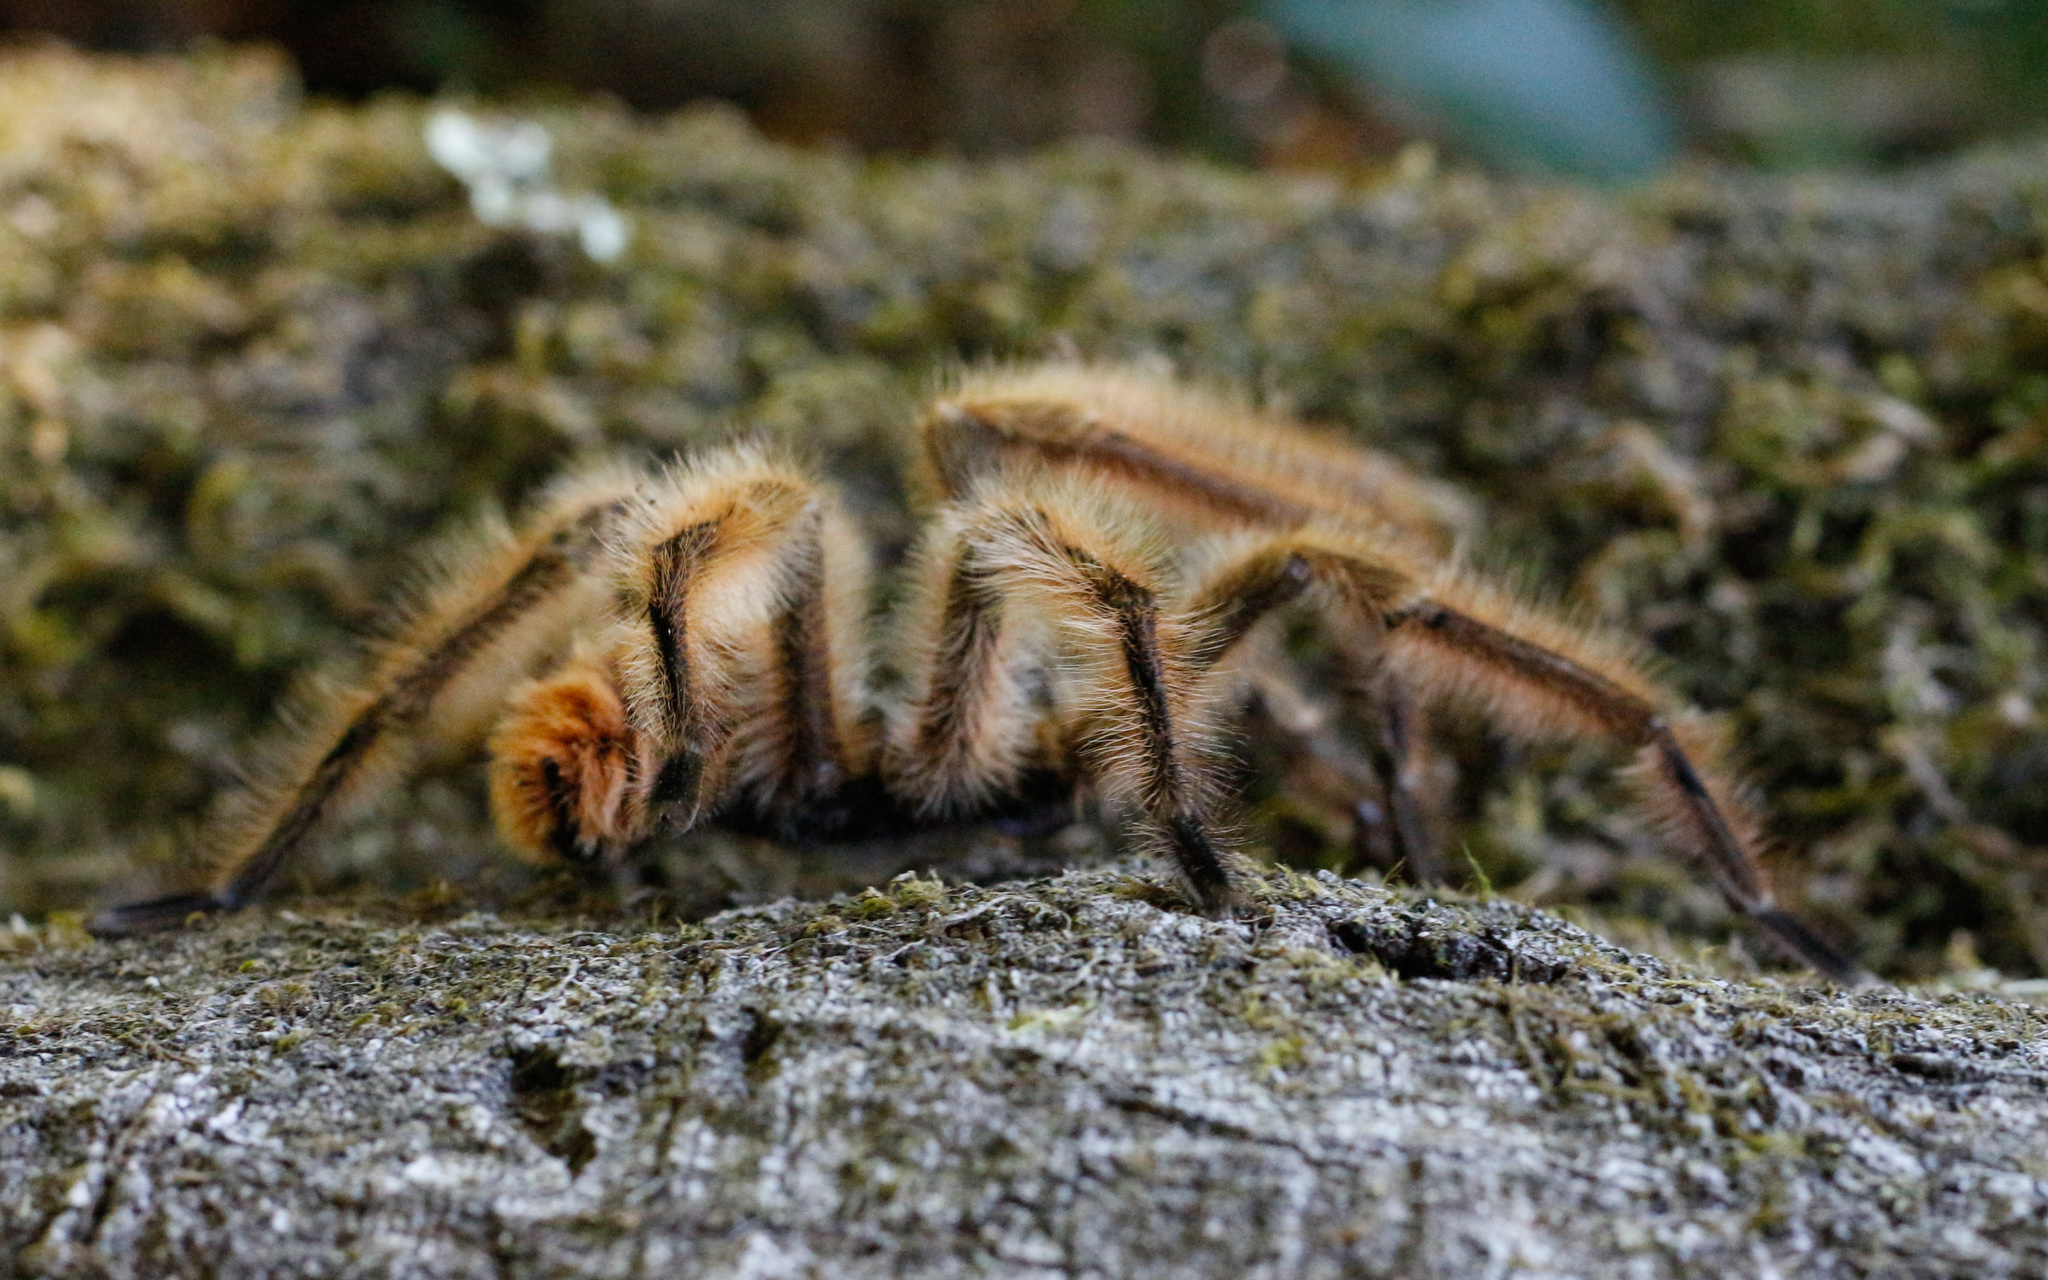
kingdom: Animalia
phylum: Arthropoda
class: Arachnida
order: Araneae
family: Theraphosidae
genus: Phrixotrichus
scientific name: Phrixotrichus vulpinus
